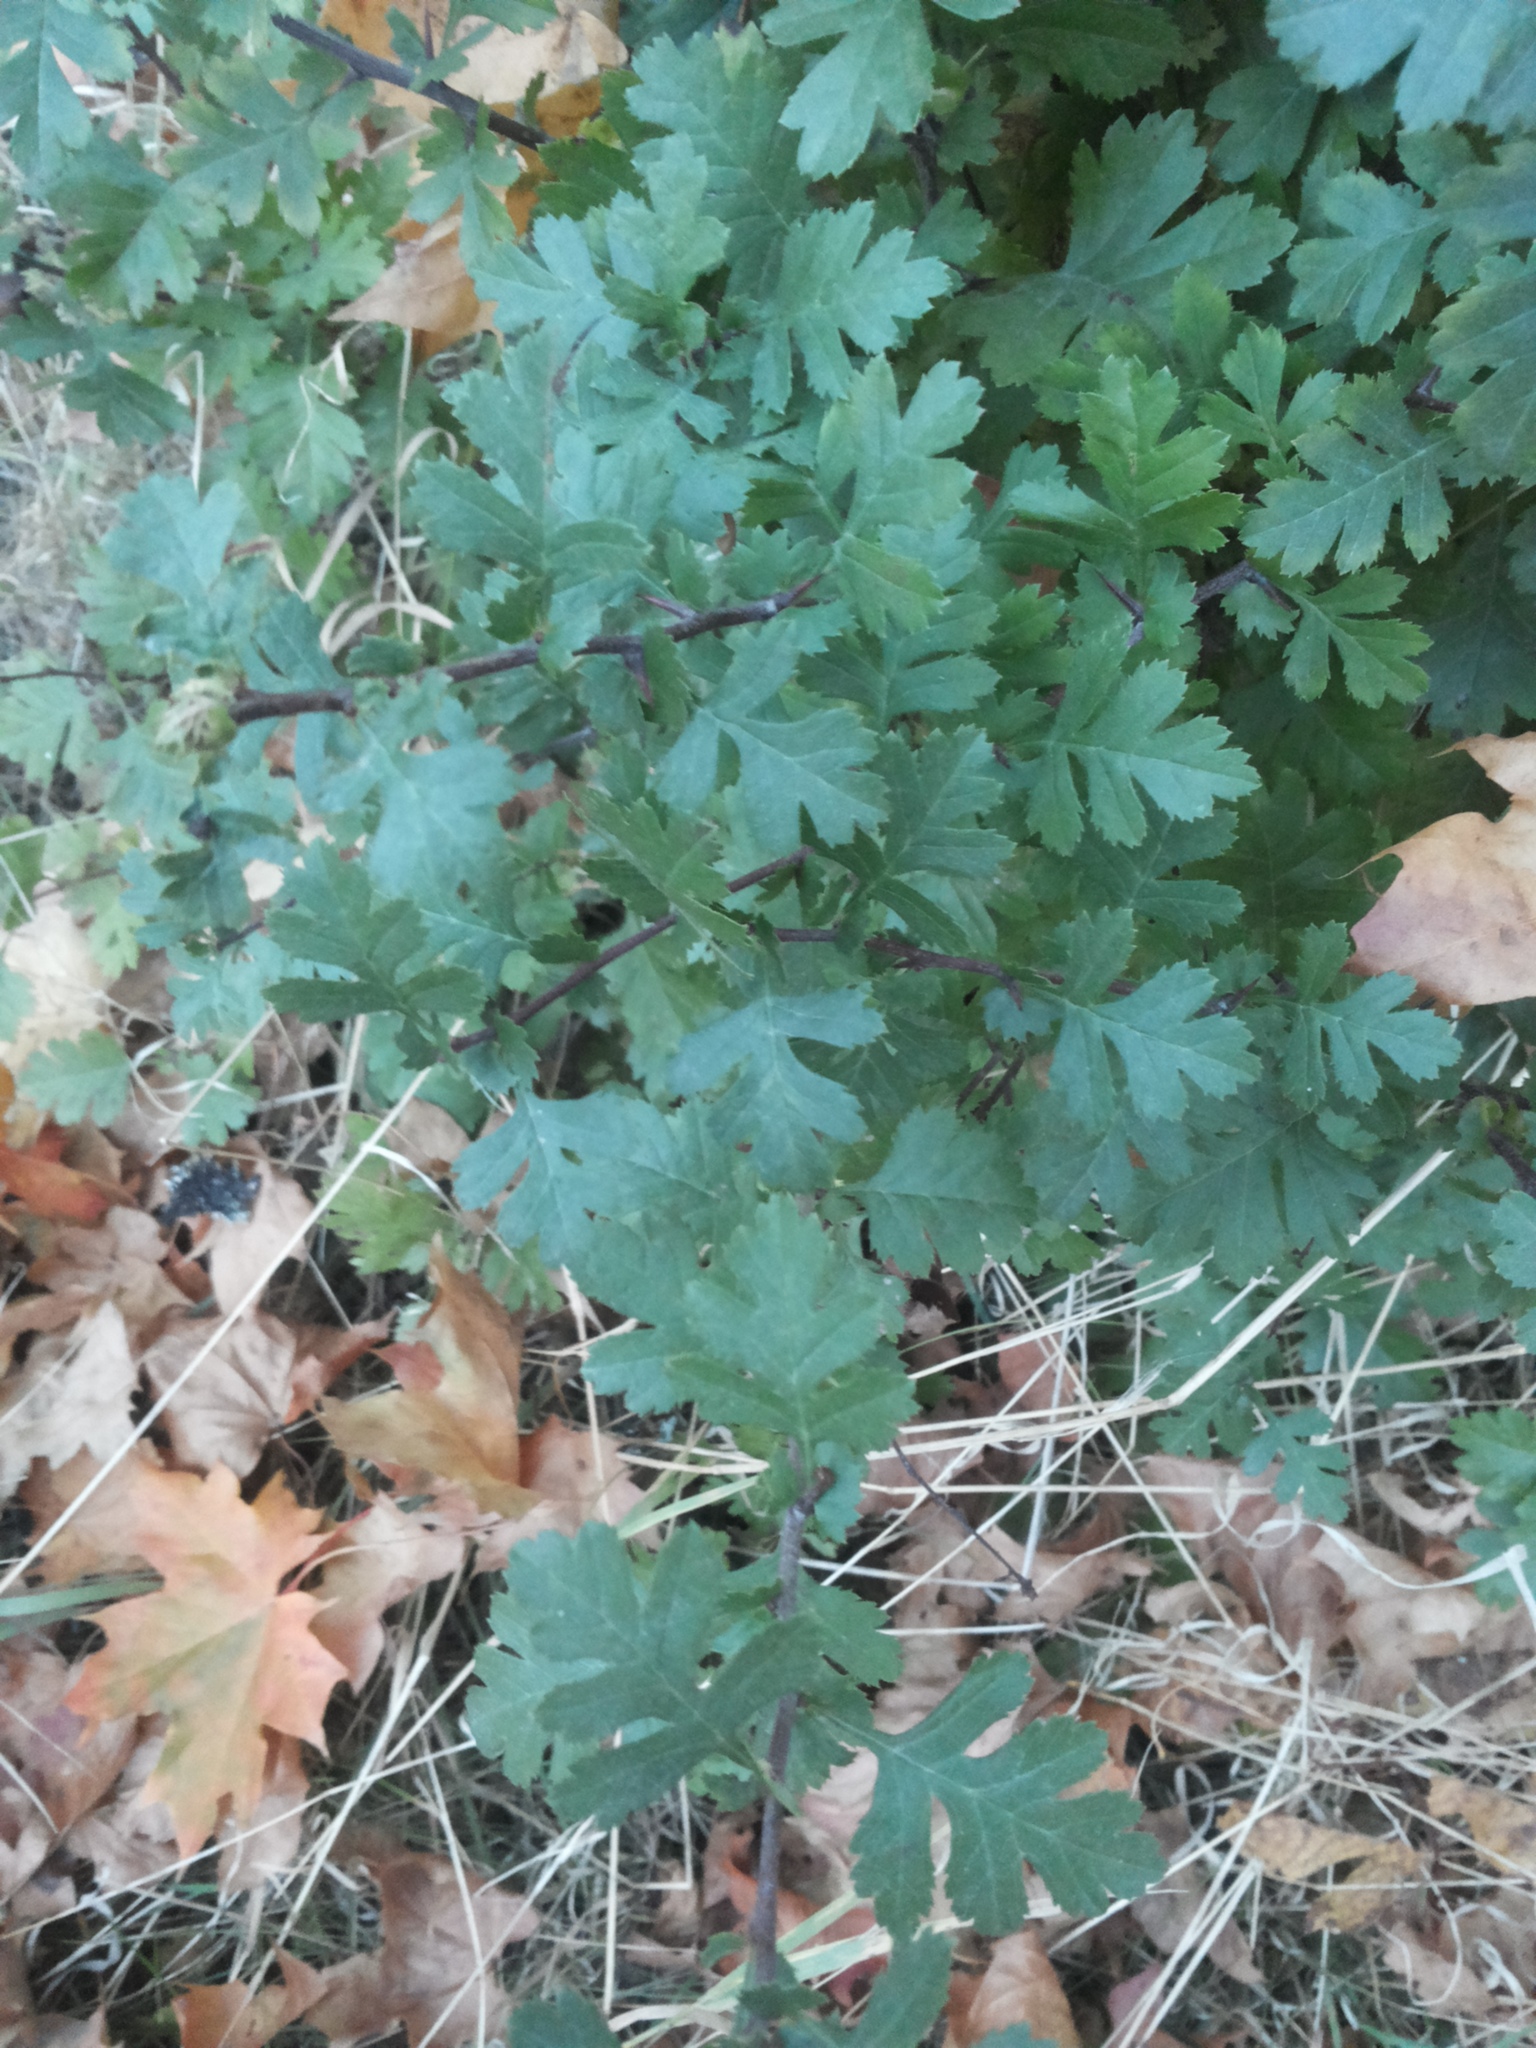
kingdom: Plantae
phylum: Tracheophyta
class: Magnoliopsida
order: Rosales
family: Rosaceae
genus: Crataegus
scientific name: Crataegus monogyna
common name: Hawthorn
